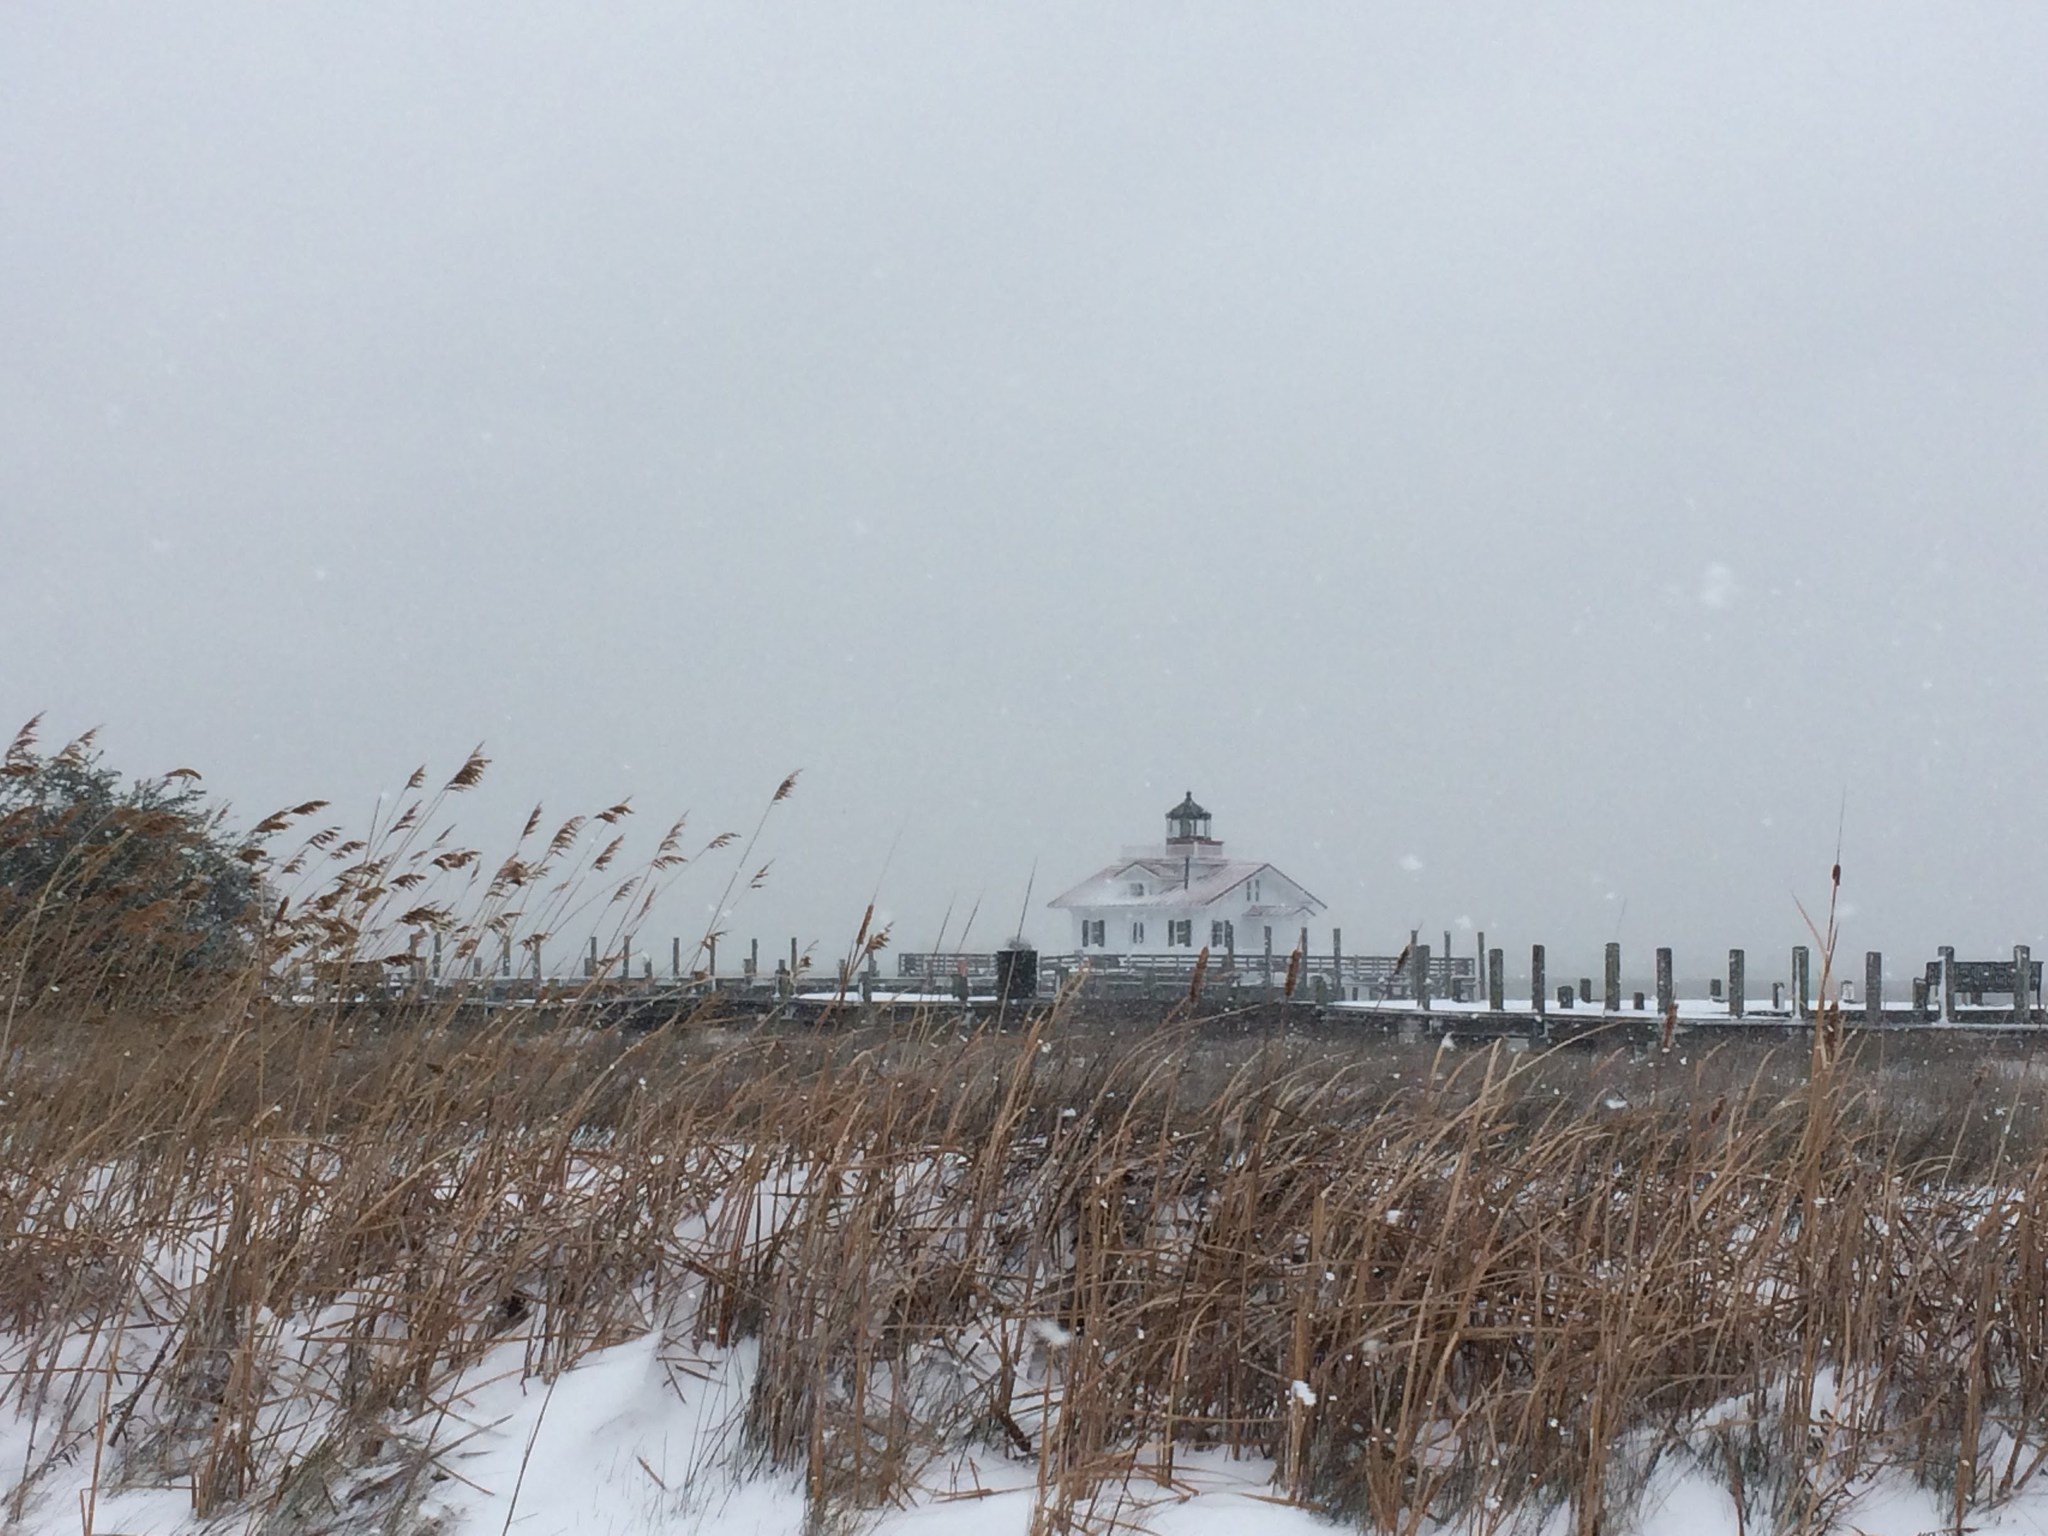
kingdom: Plantae
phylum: Tracheophyta
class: Liliopsida
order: Poales
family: Poaceae
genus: Phragmites
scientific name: Phragmites australis
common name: Common reed
